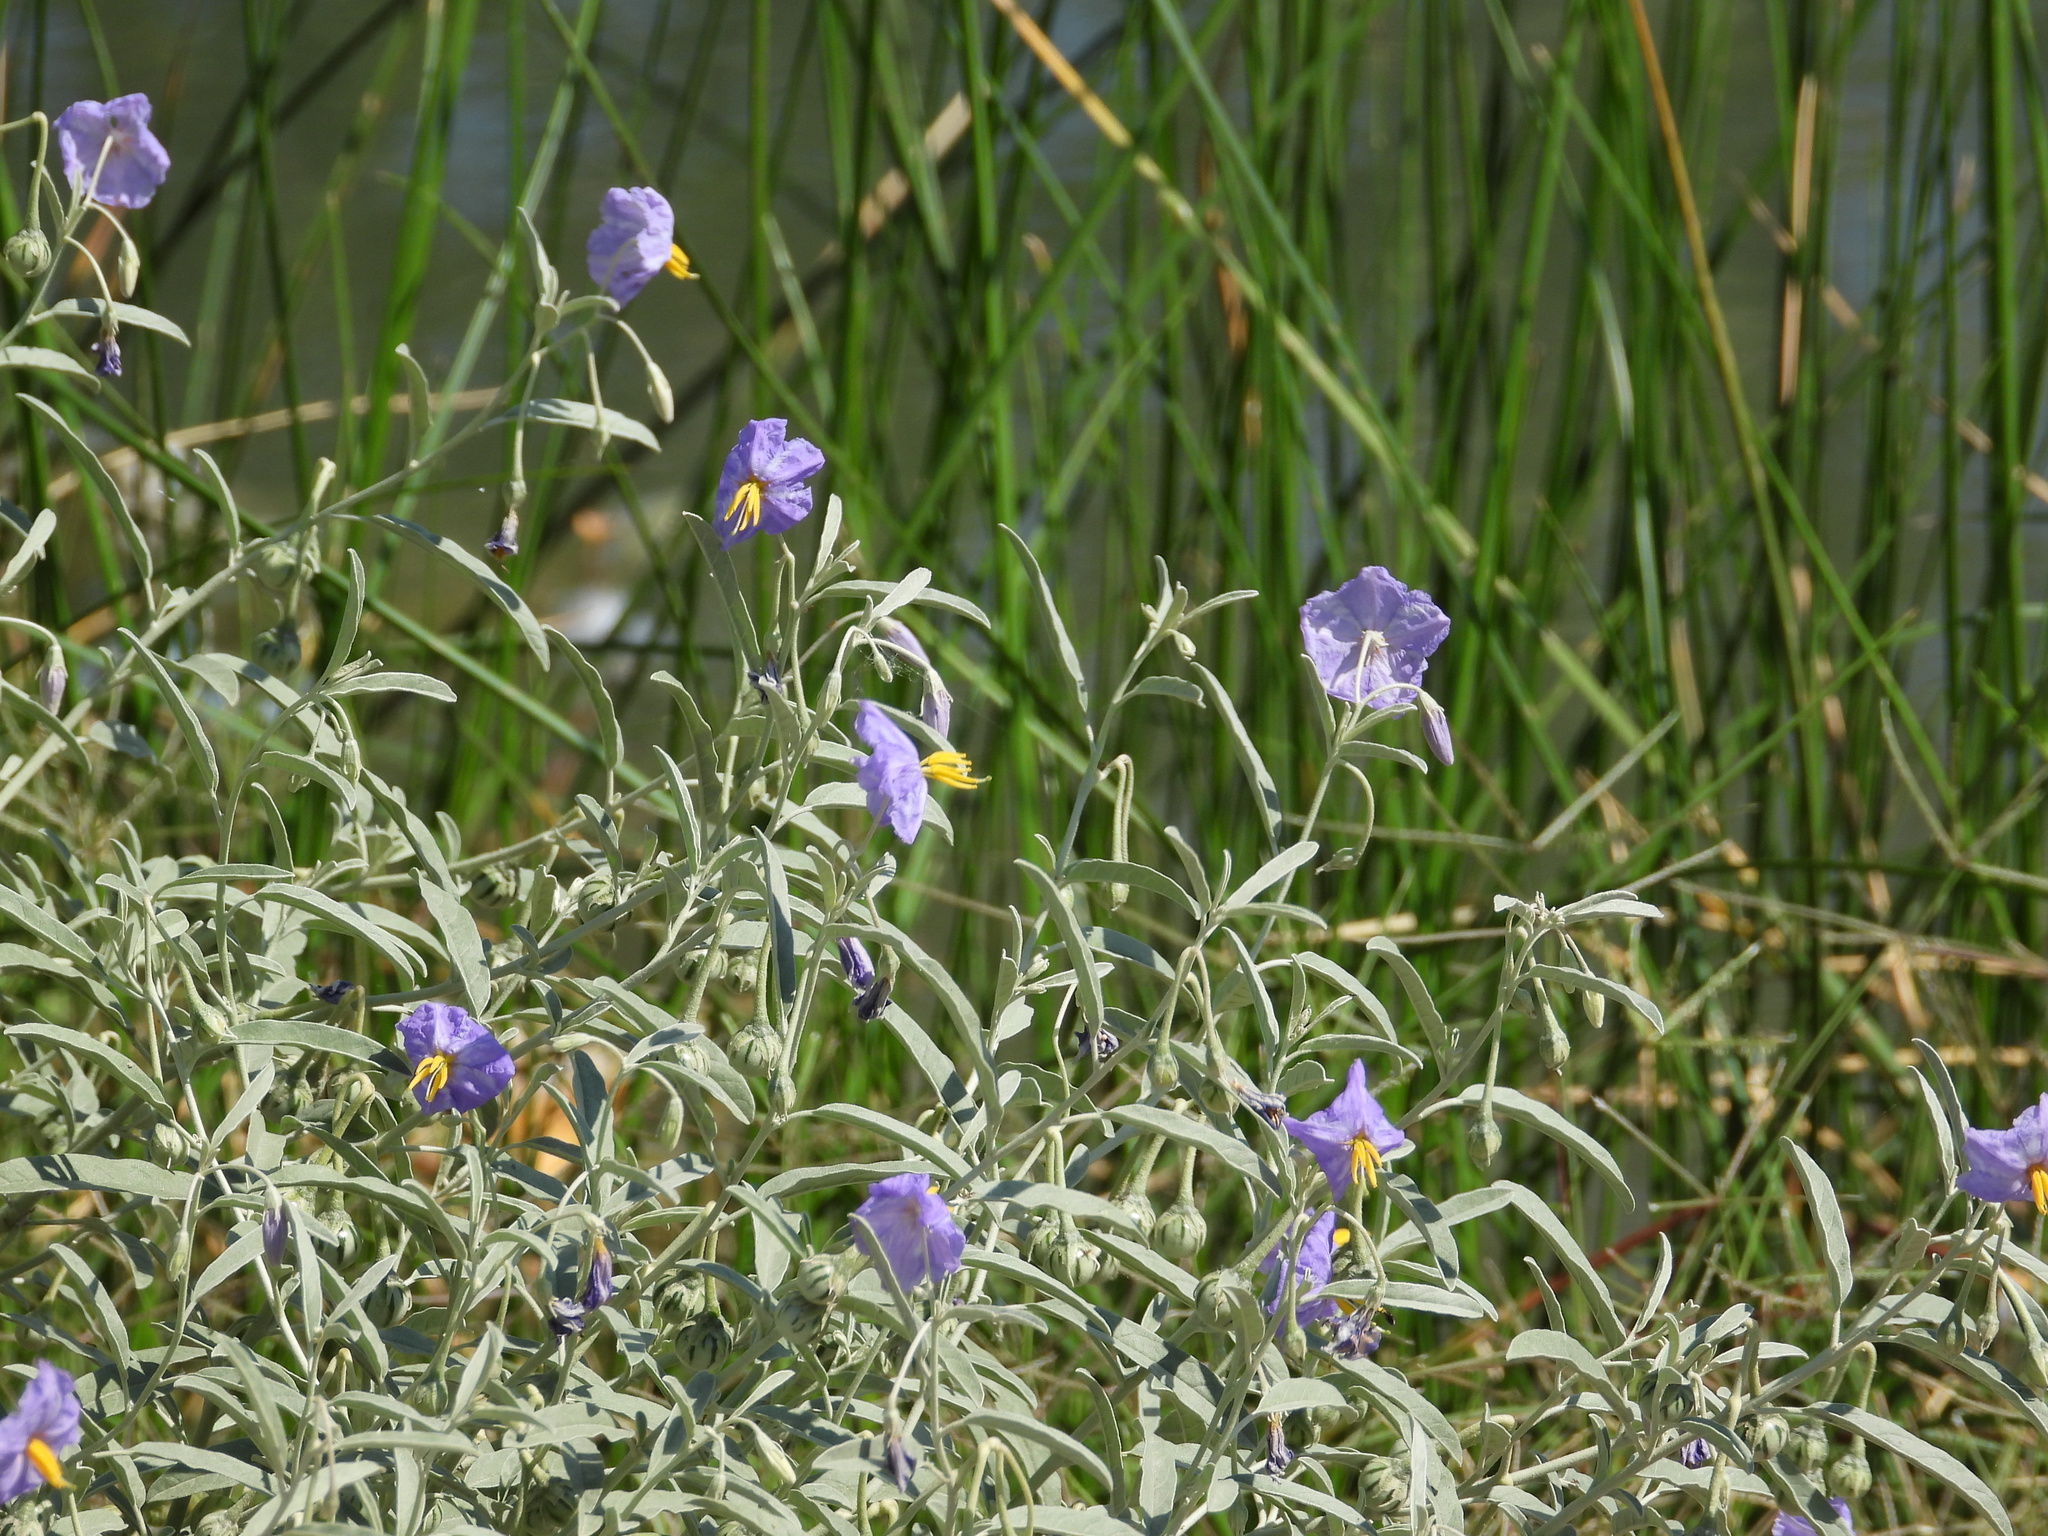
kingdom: Plantae
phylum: Tracheophyta
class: Magnoliopsida
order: Solanales
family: Solanaceae
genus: Solanum
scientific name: Solanum elaeagnifolium
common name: Silverleaf nightshade
